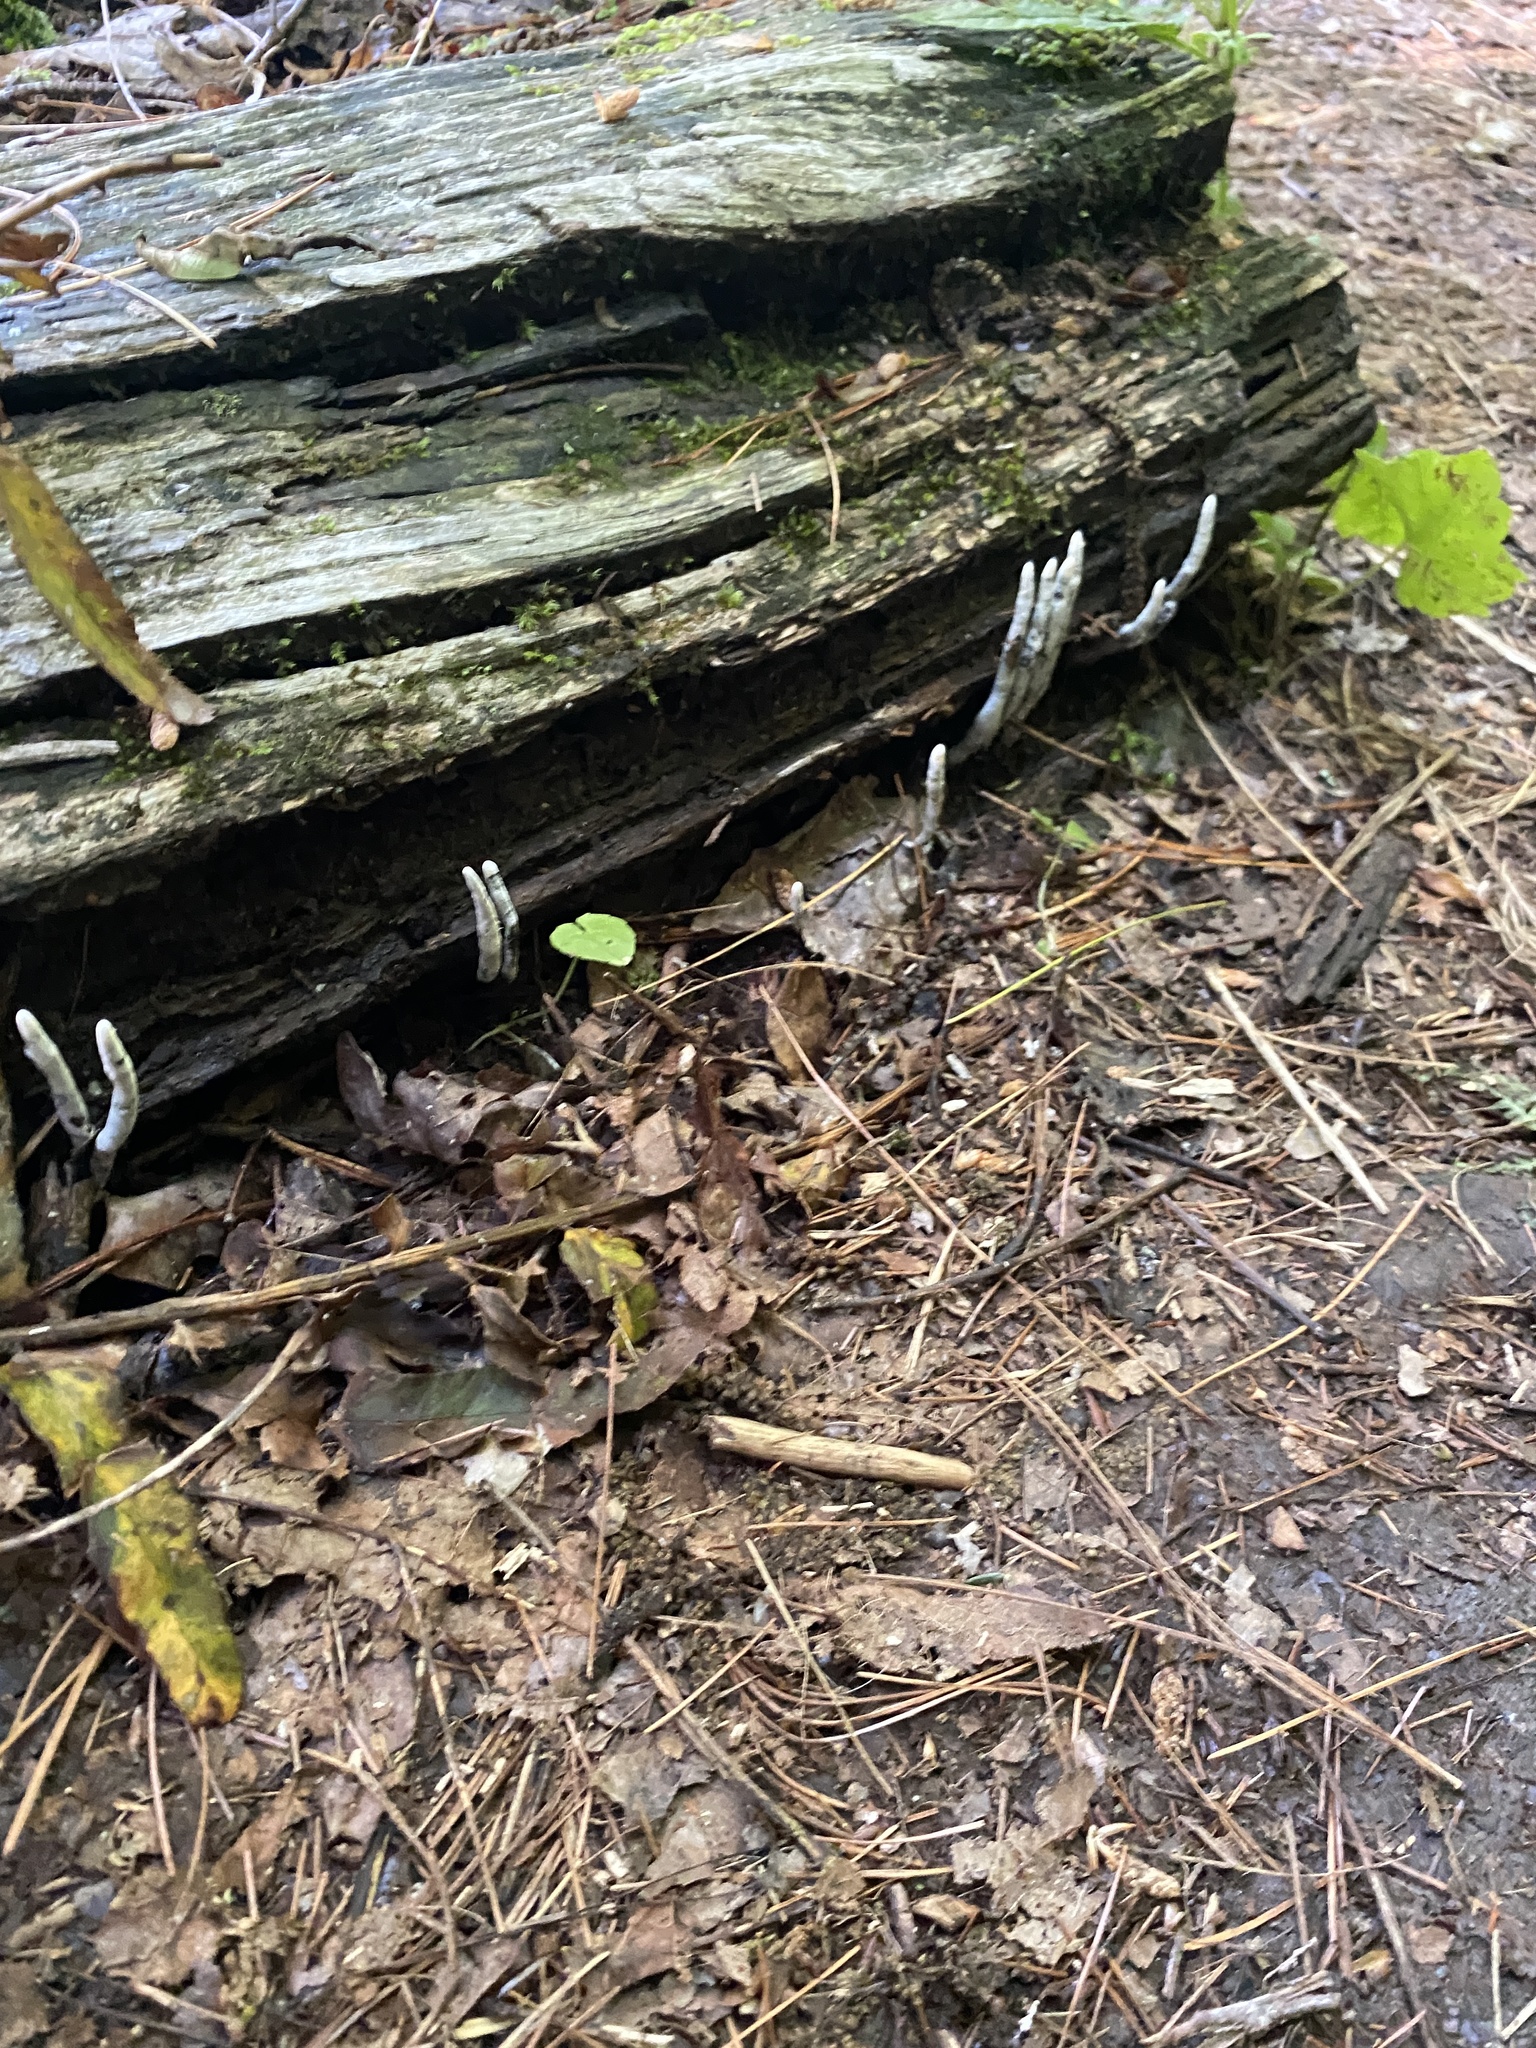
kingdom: Fungi
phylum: Ascomycota
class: Sordariomycetes
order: Xylariales
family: Xylariaceae
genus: Xylaria
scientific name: Xylaria polymorpha
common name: Dead man's fingers
